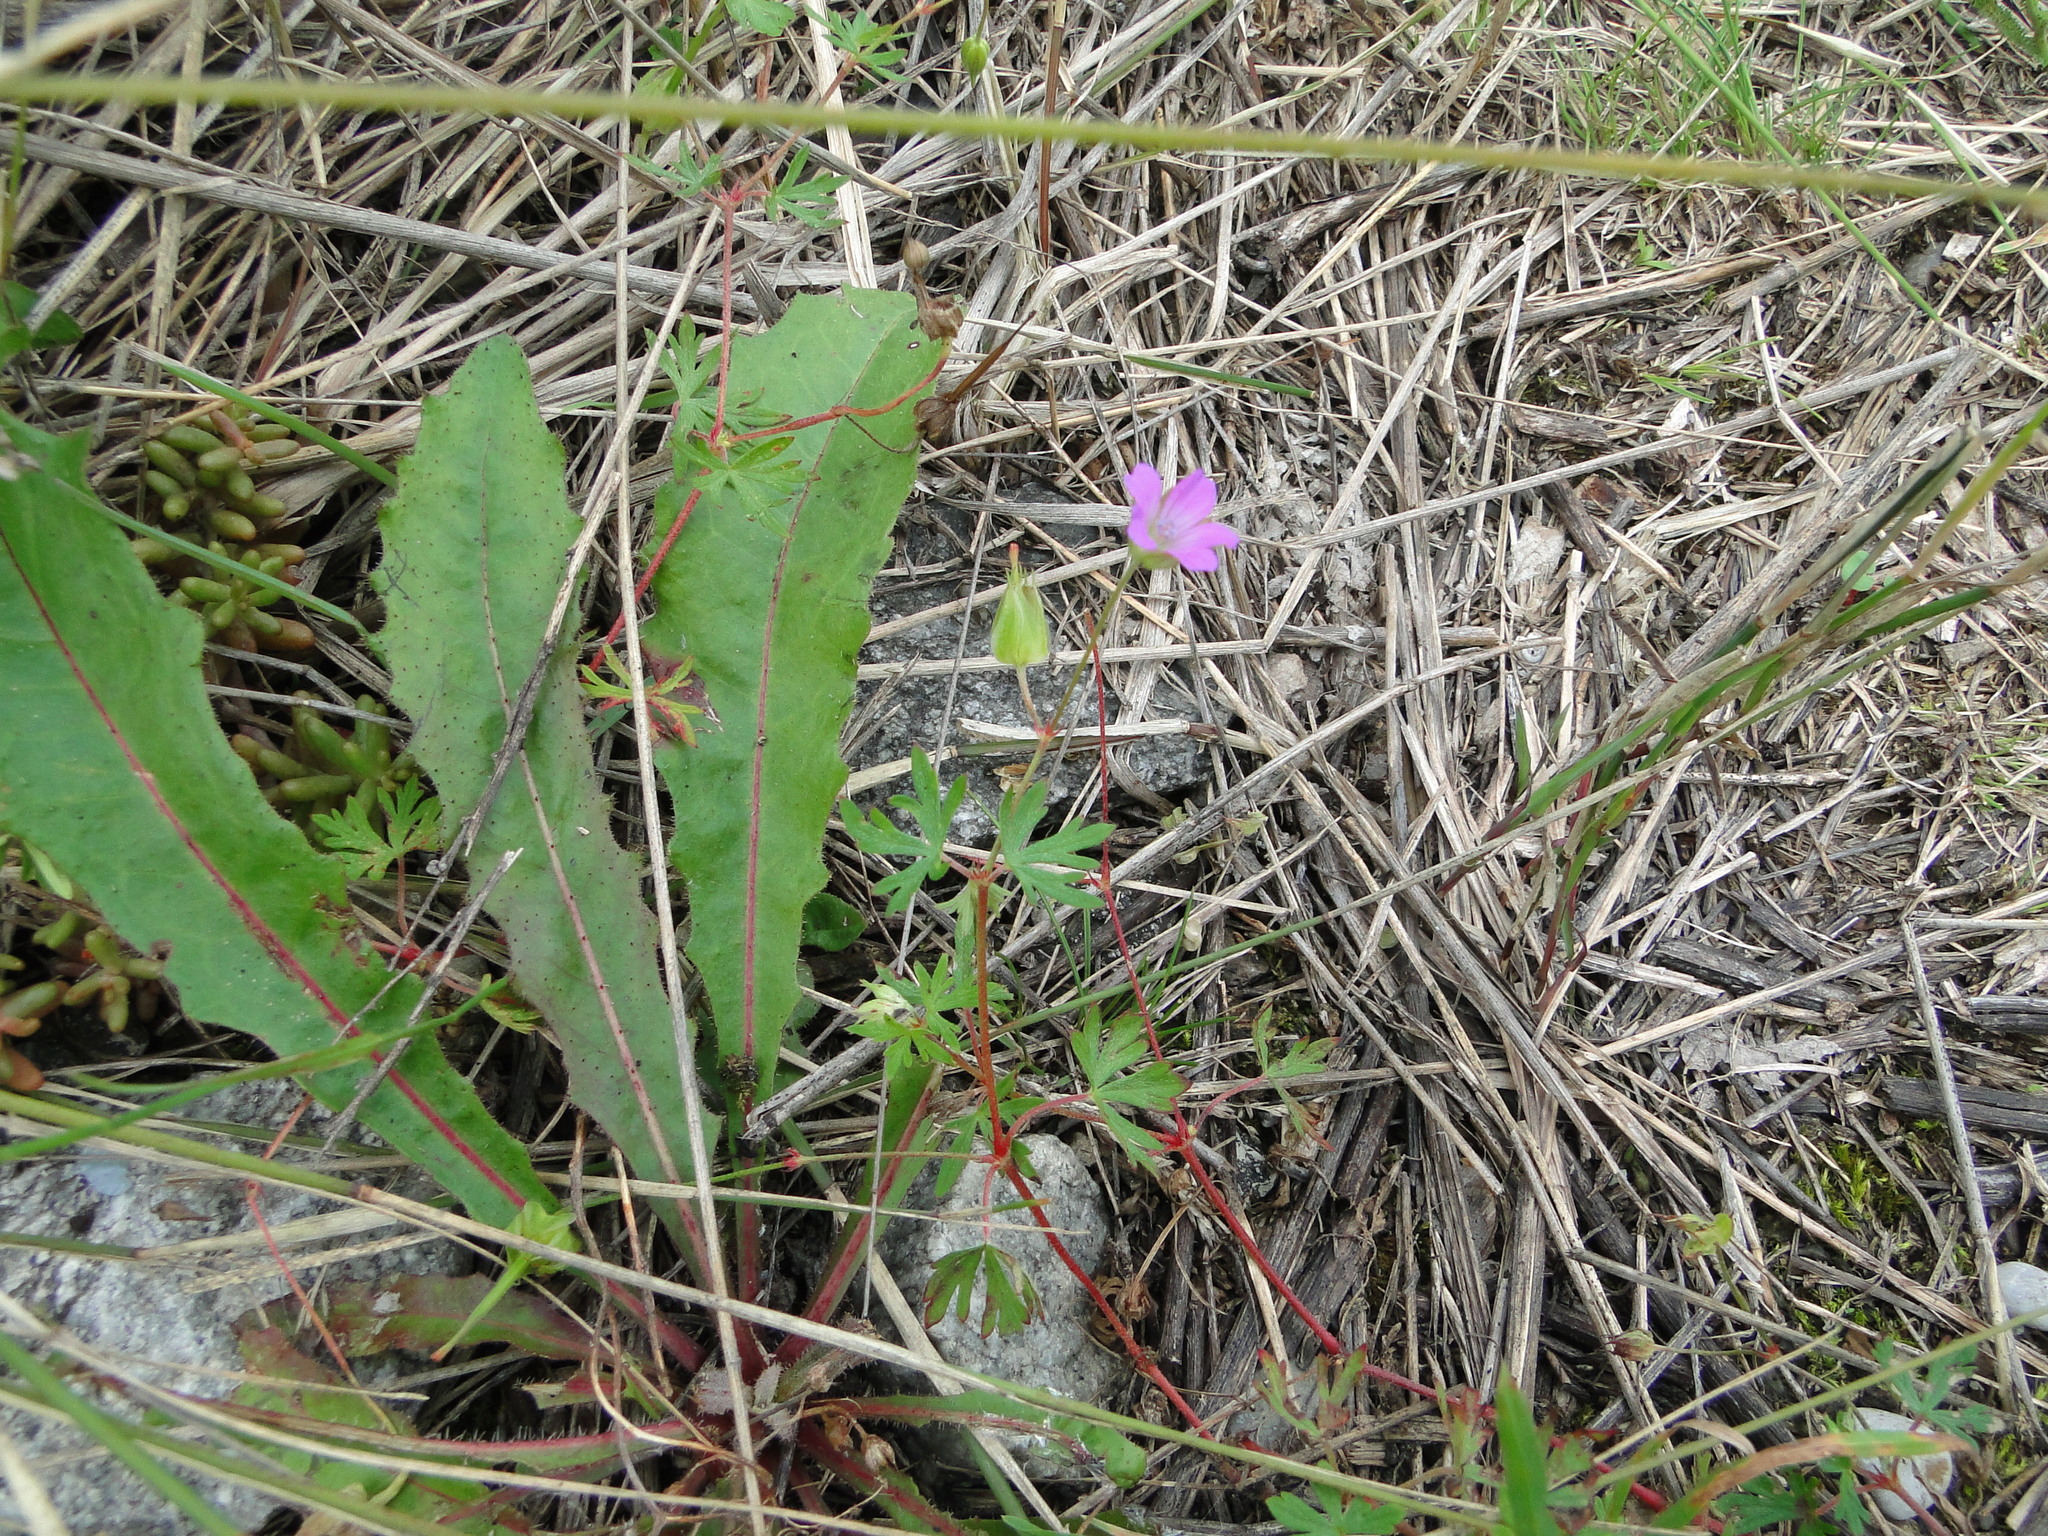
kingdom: Plantae
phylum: Tracheophyta
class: Magnoliopsida
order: Geraniales
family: Geraniaceae
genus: Geranium
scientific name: Geranium columbinum
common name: Long-stalked crane's-bill
